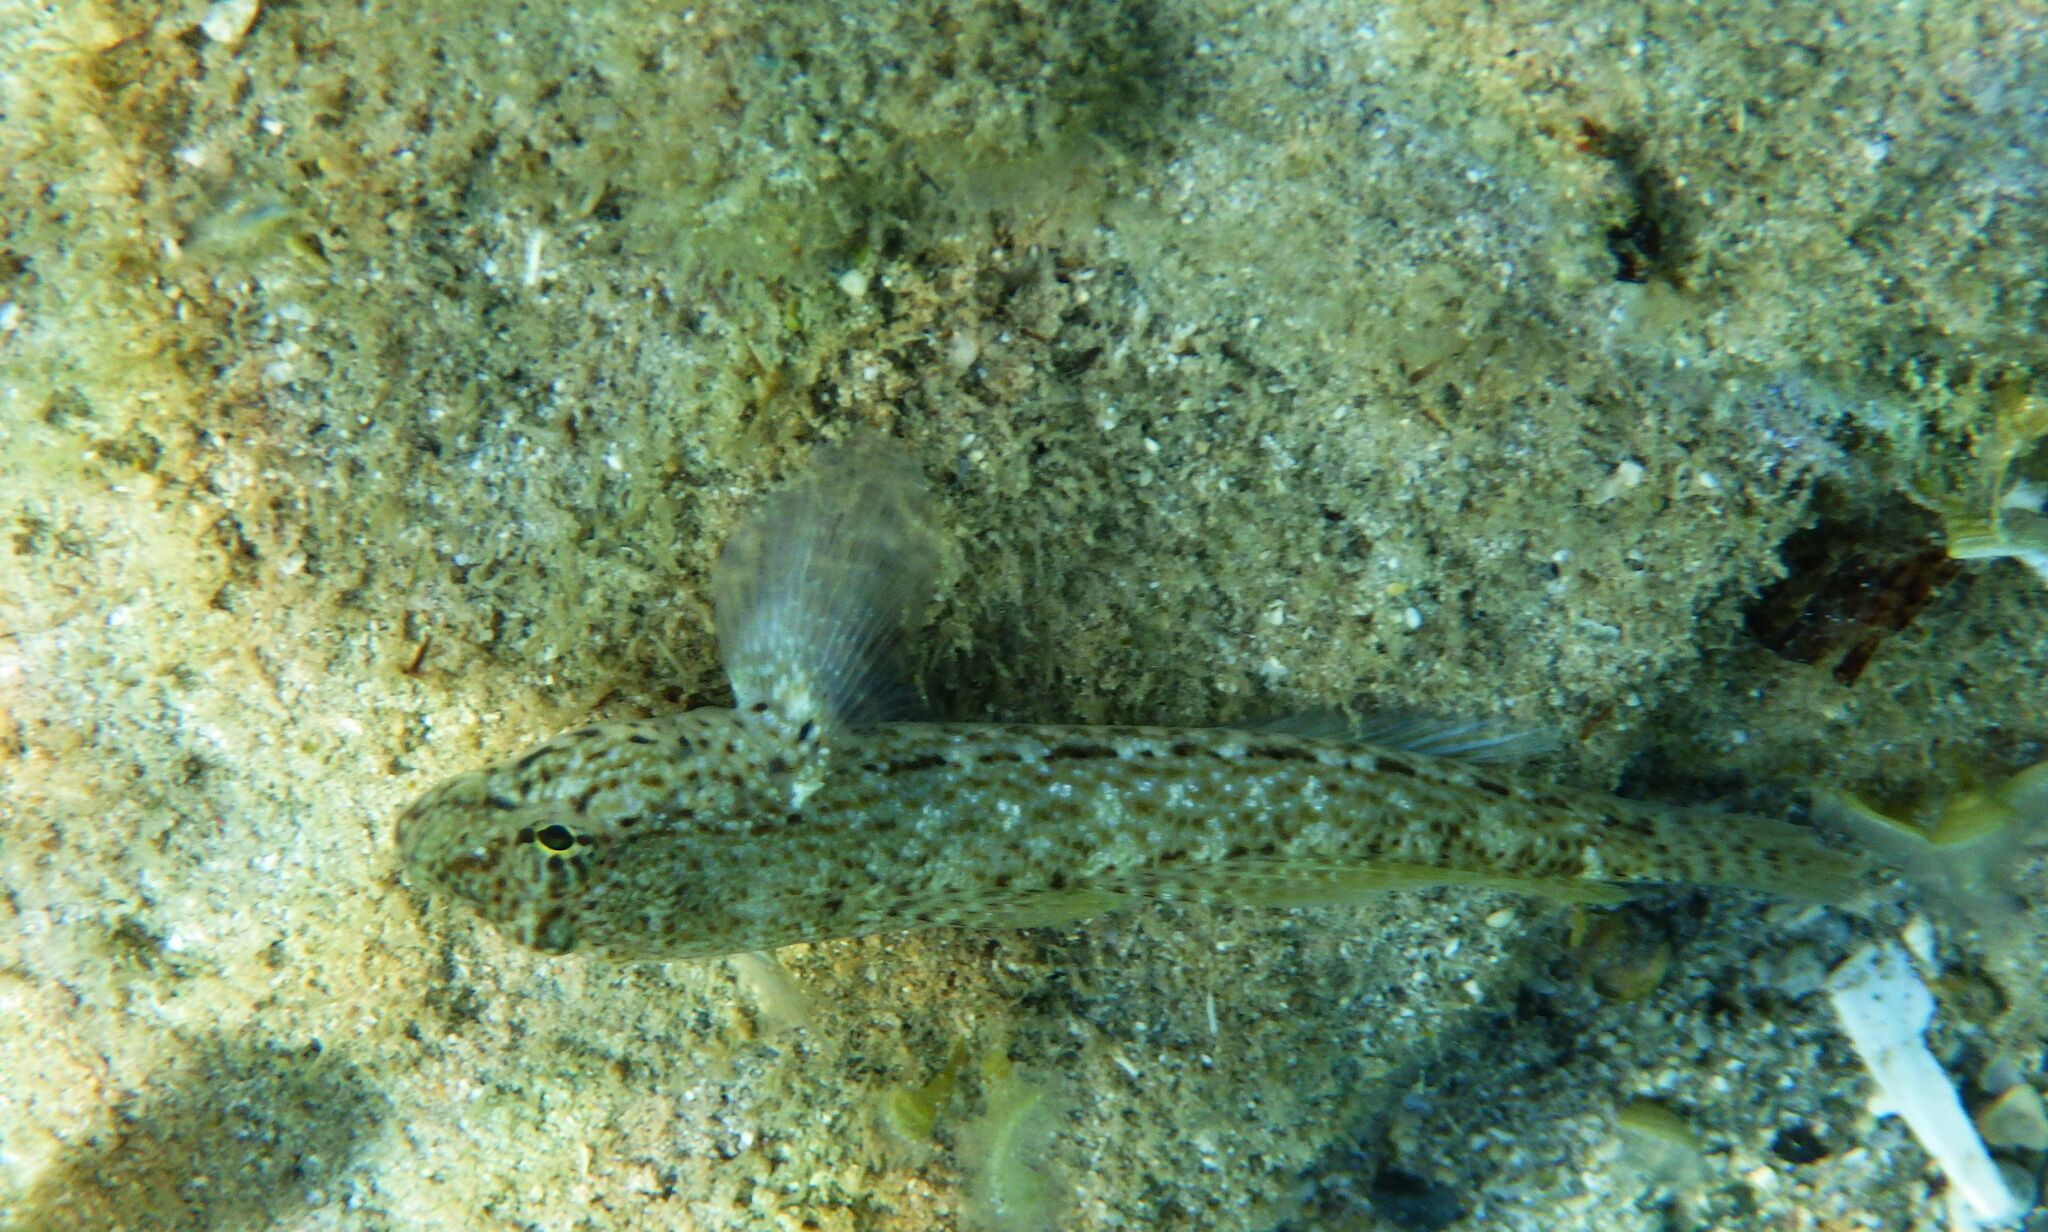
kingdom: Animalia
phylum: Chordata
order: Perciformes
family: Gobiidae
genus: Gobius
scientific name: Gobius incognitus
